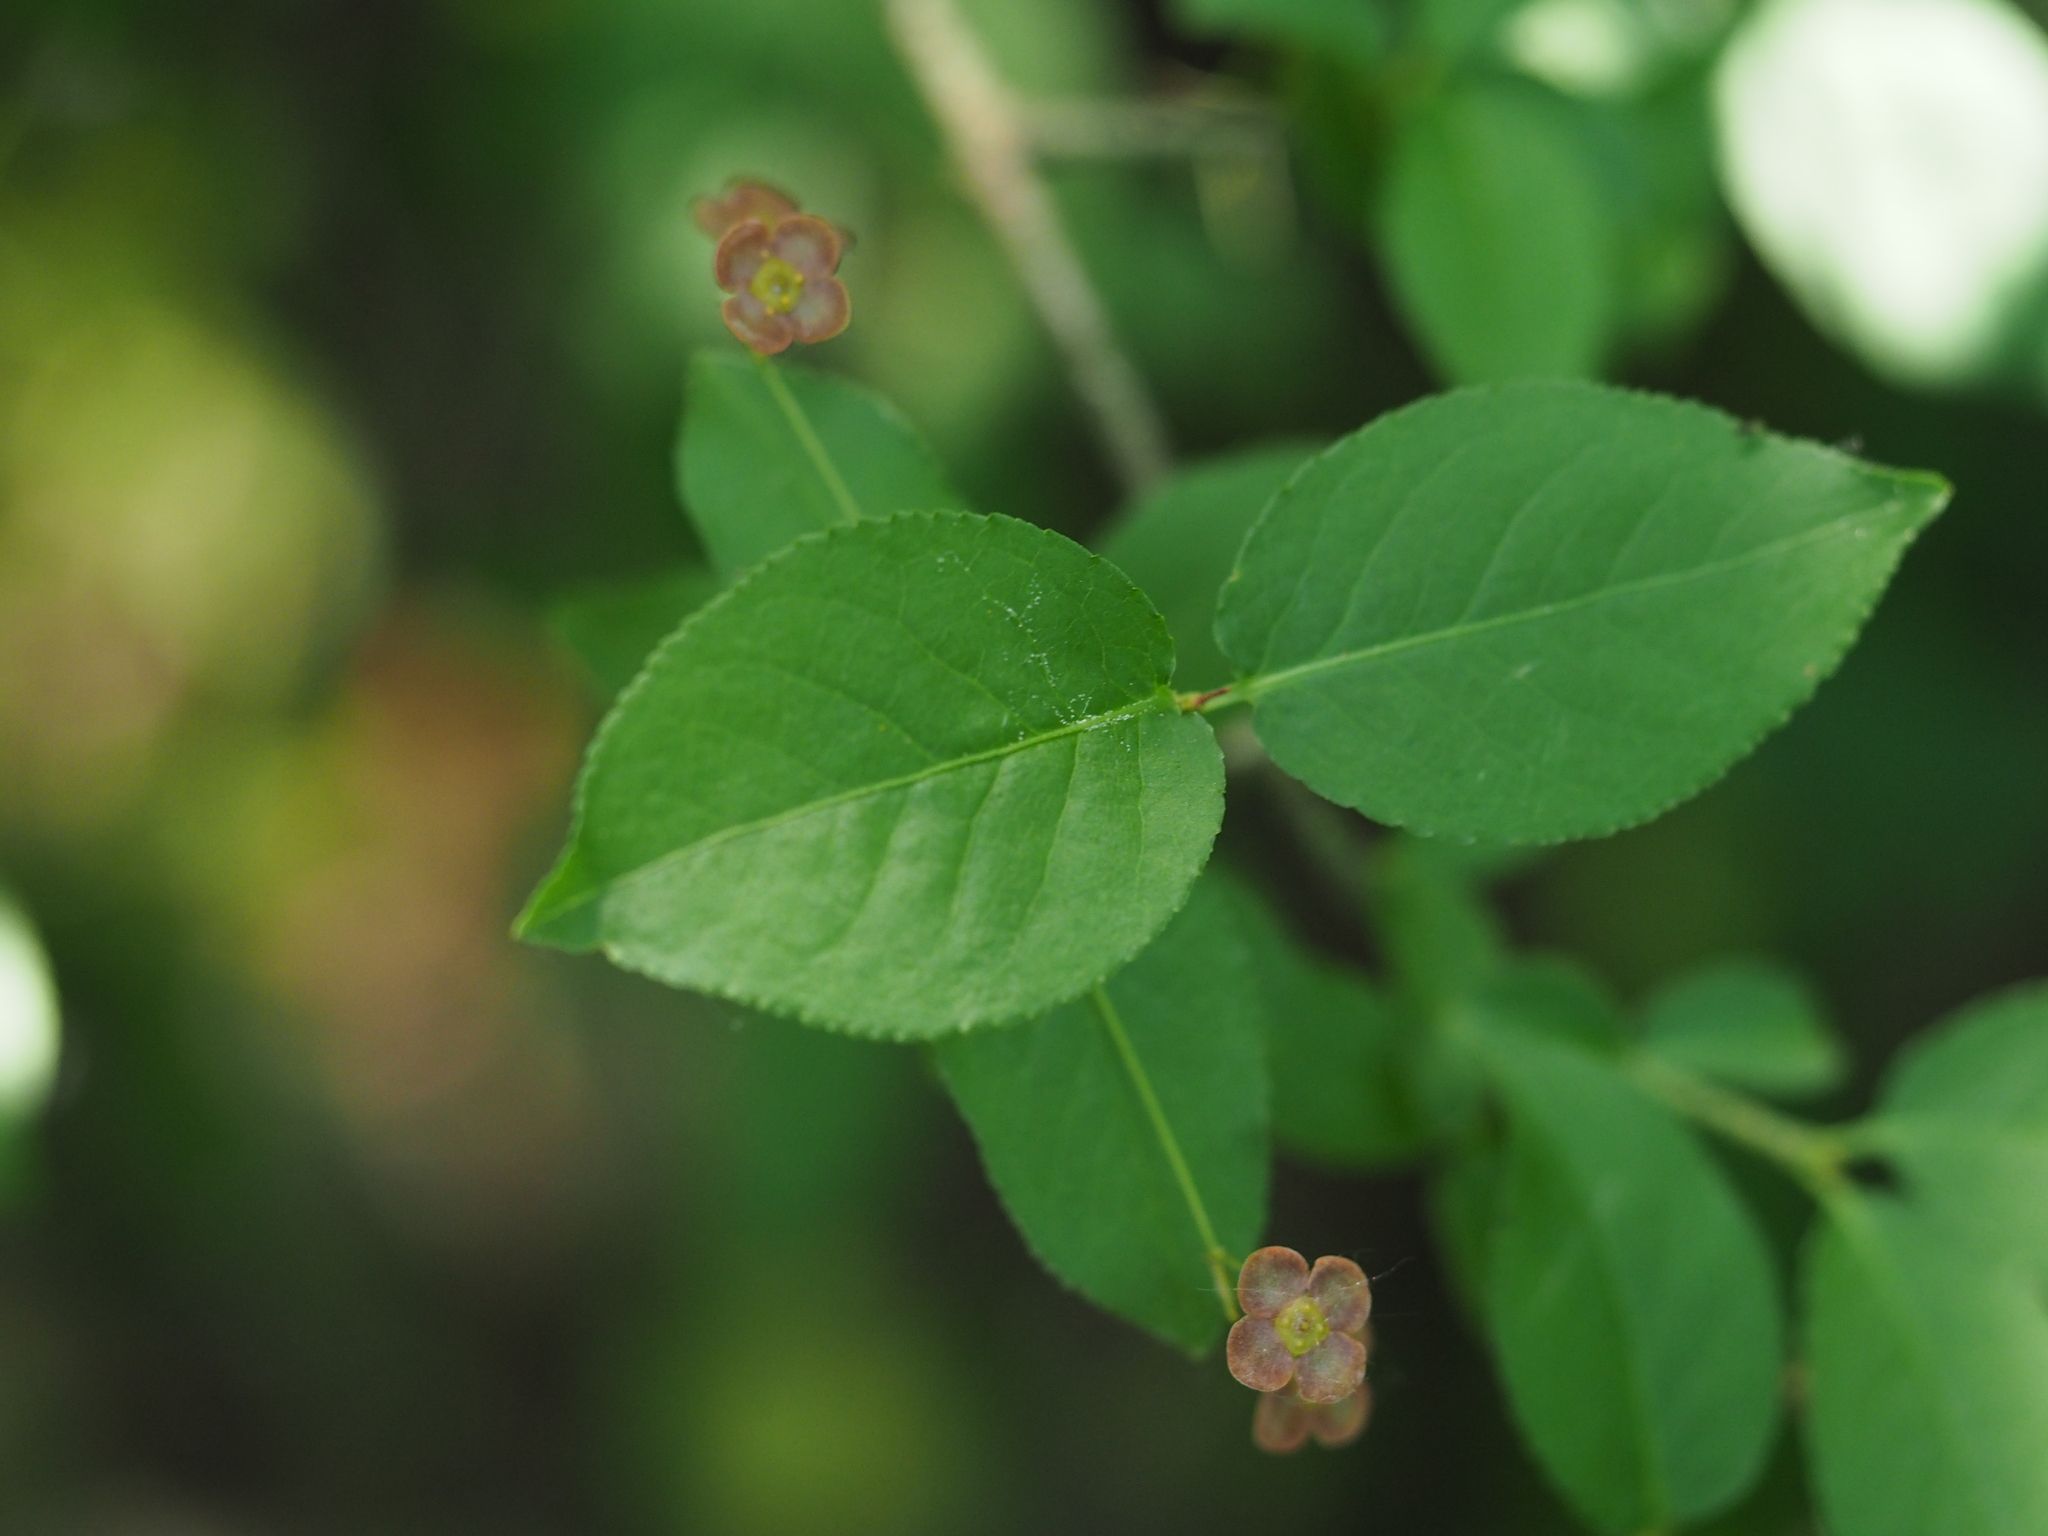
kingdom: Plantae
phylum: Tracheophyta
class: Magnoliopsida
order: Celastrales
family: Celastraceae
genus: Euonymus
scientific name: Euonymus verrucosus
